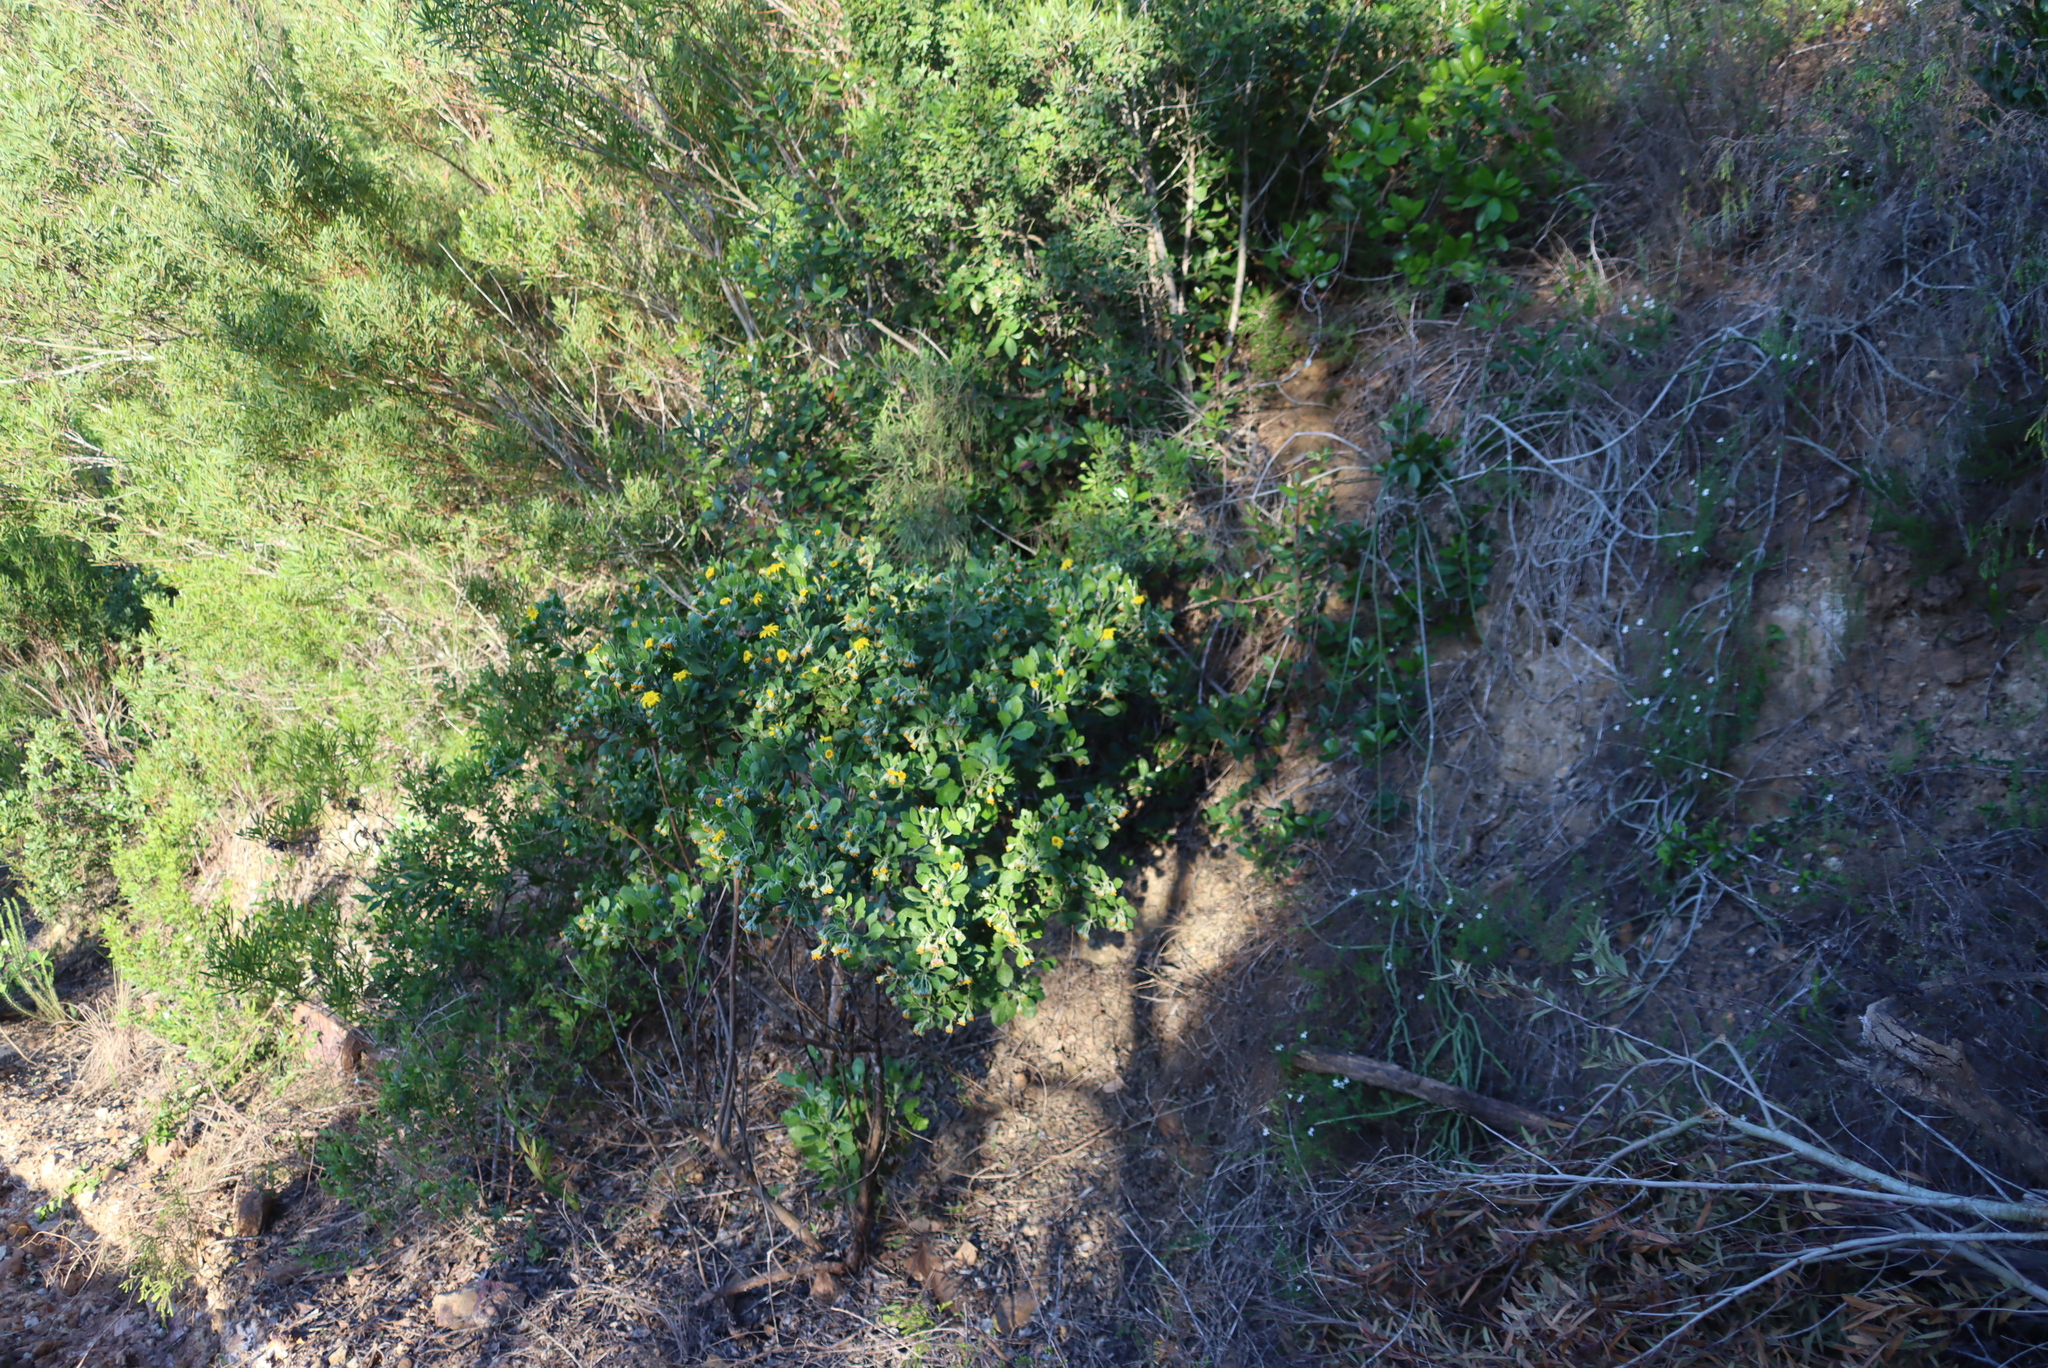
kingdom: Plantae
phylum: Tracheophyta
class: Magnoliopsida
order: Asterales
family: Asteraceae
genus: Osteospermum
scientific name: Osteospermum moniliferum
